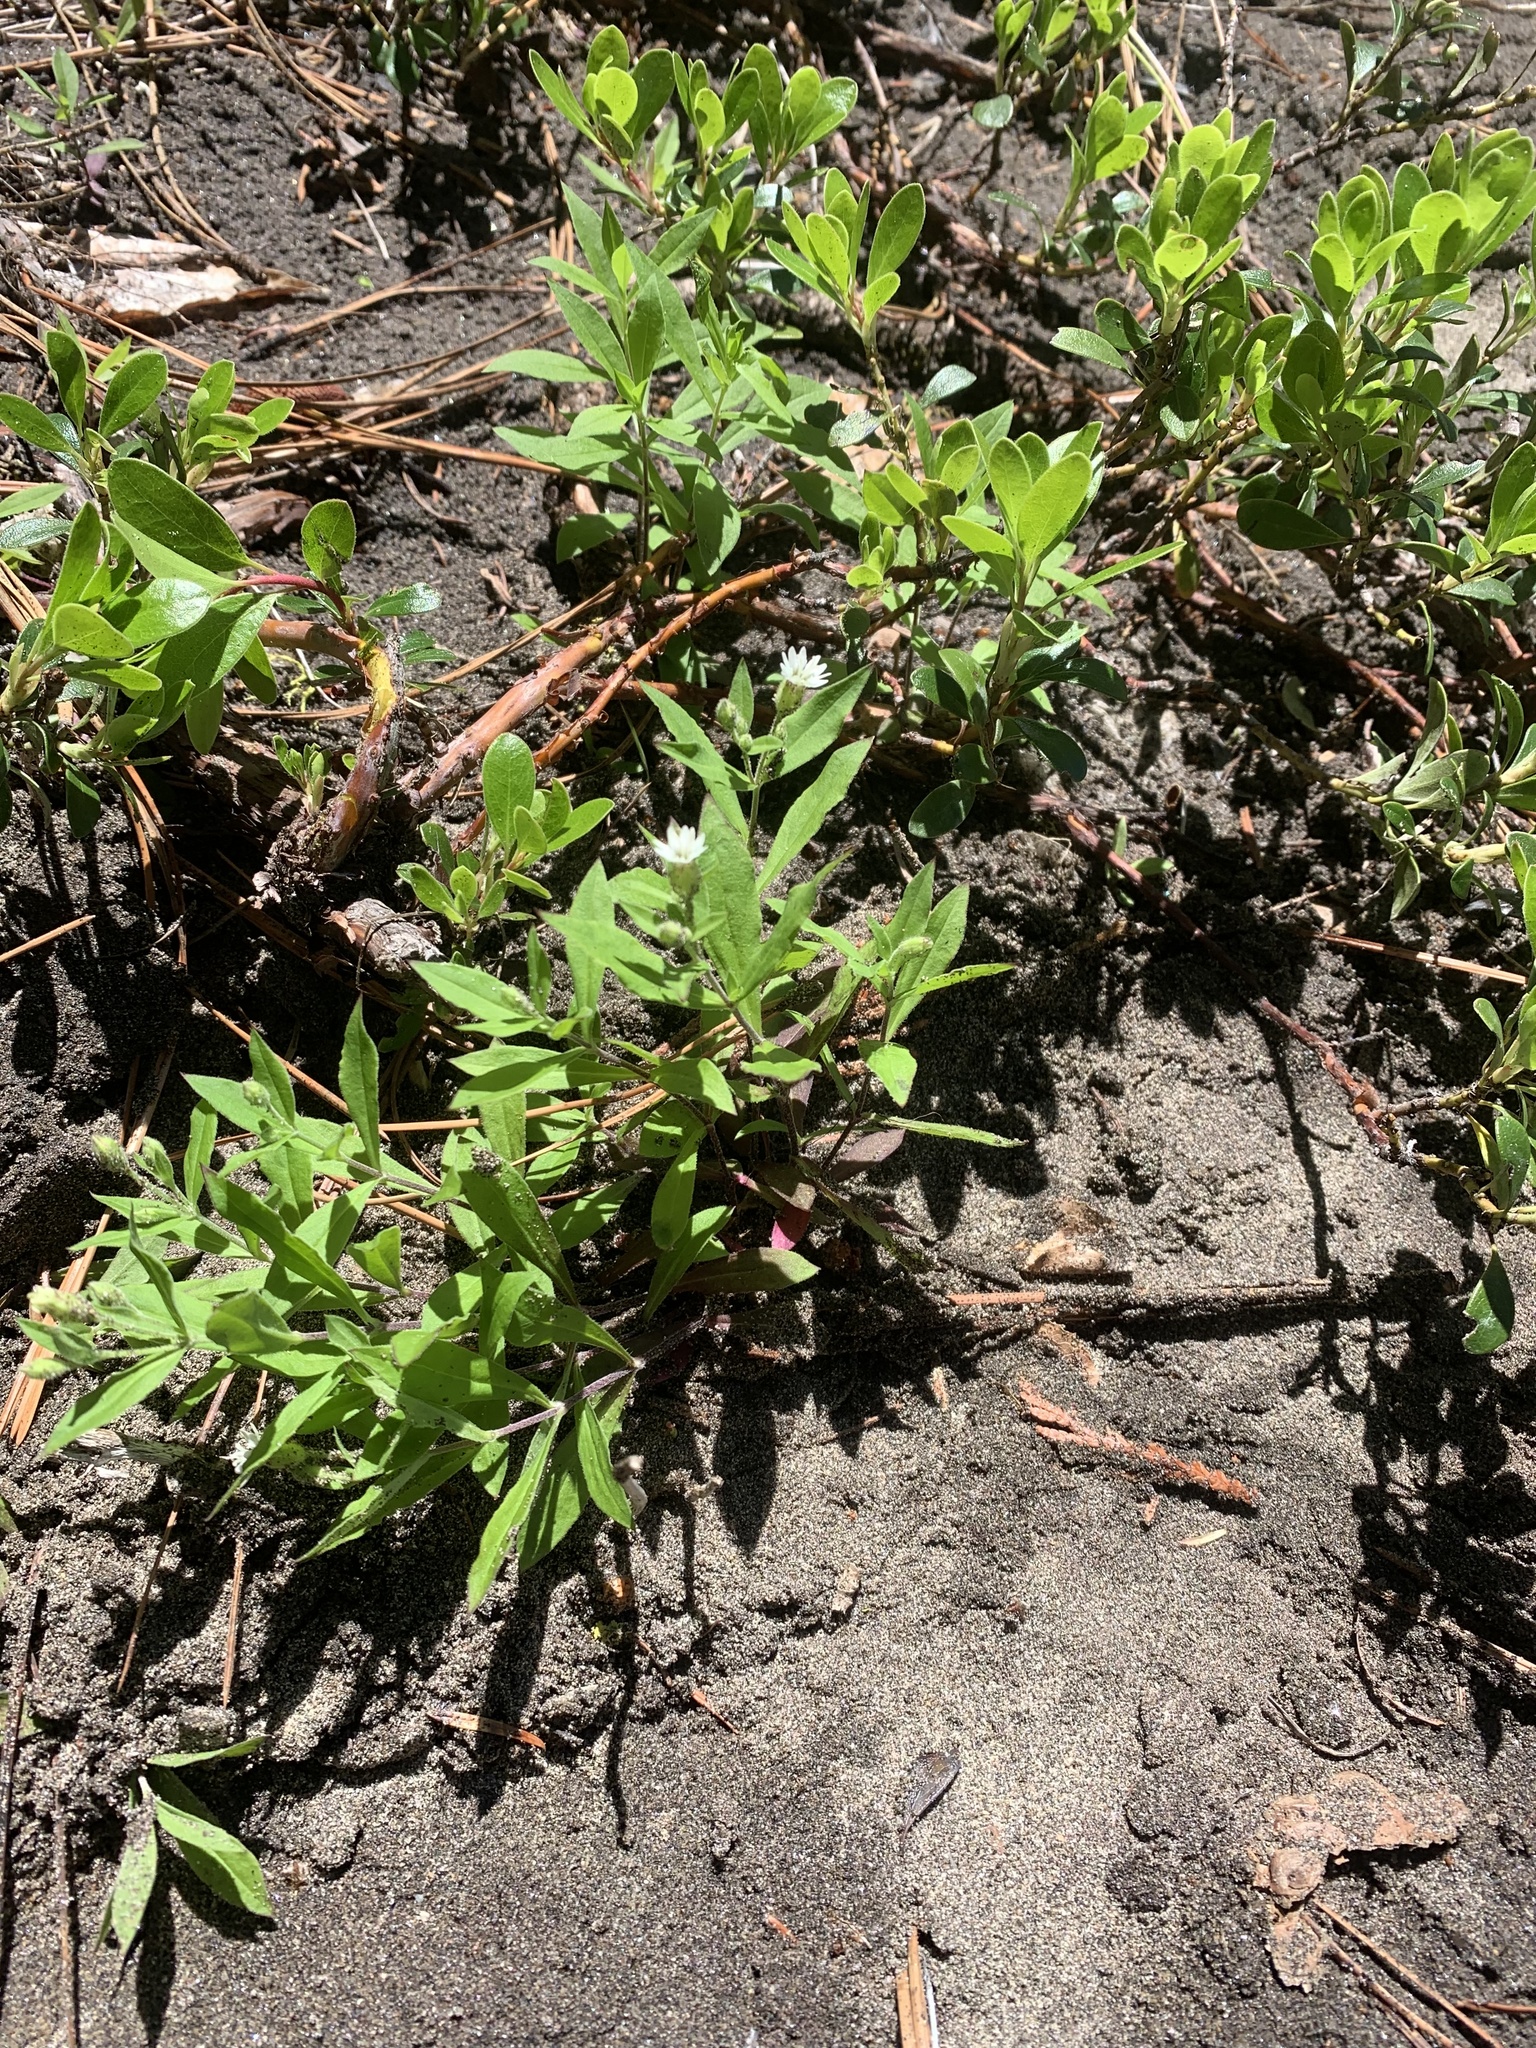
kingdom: Plantae
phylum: Tracheophyta
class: Magnoliopsida
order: Caryophyllales
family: Caryophyllaceae
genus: Silene
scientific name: Silene menziesii
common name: Menzies's catchfly
